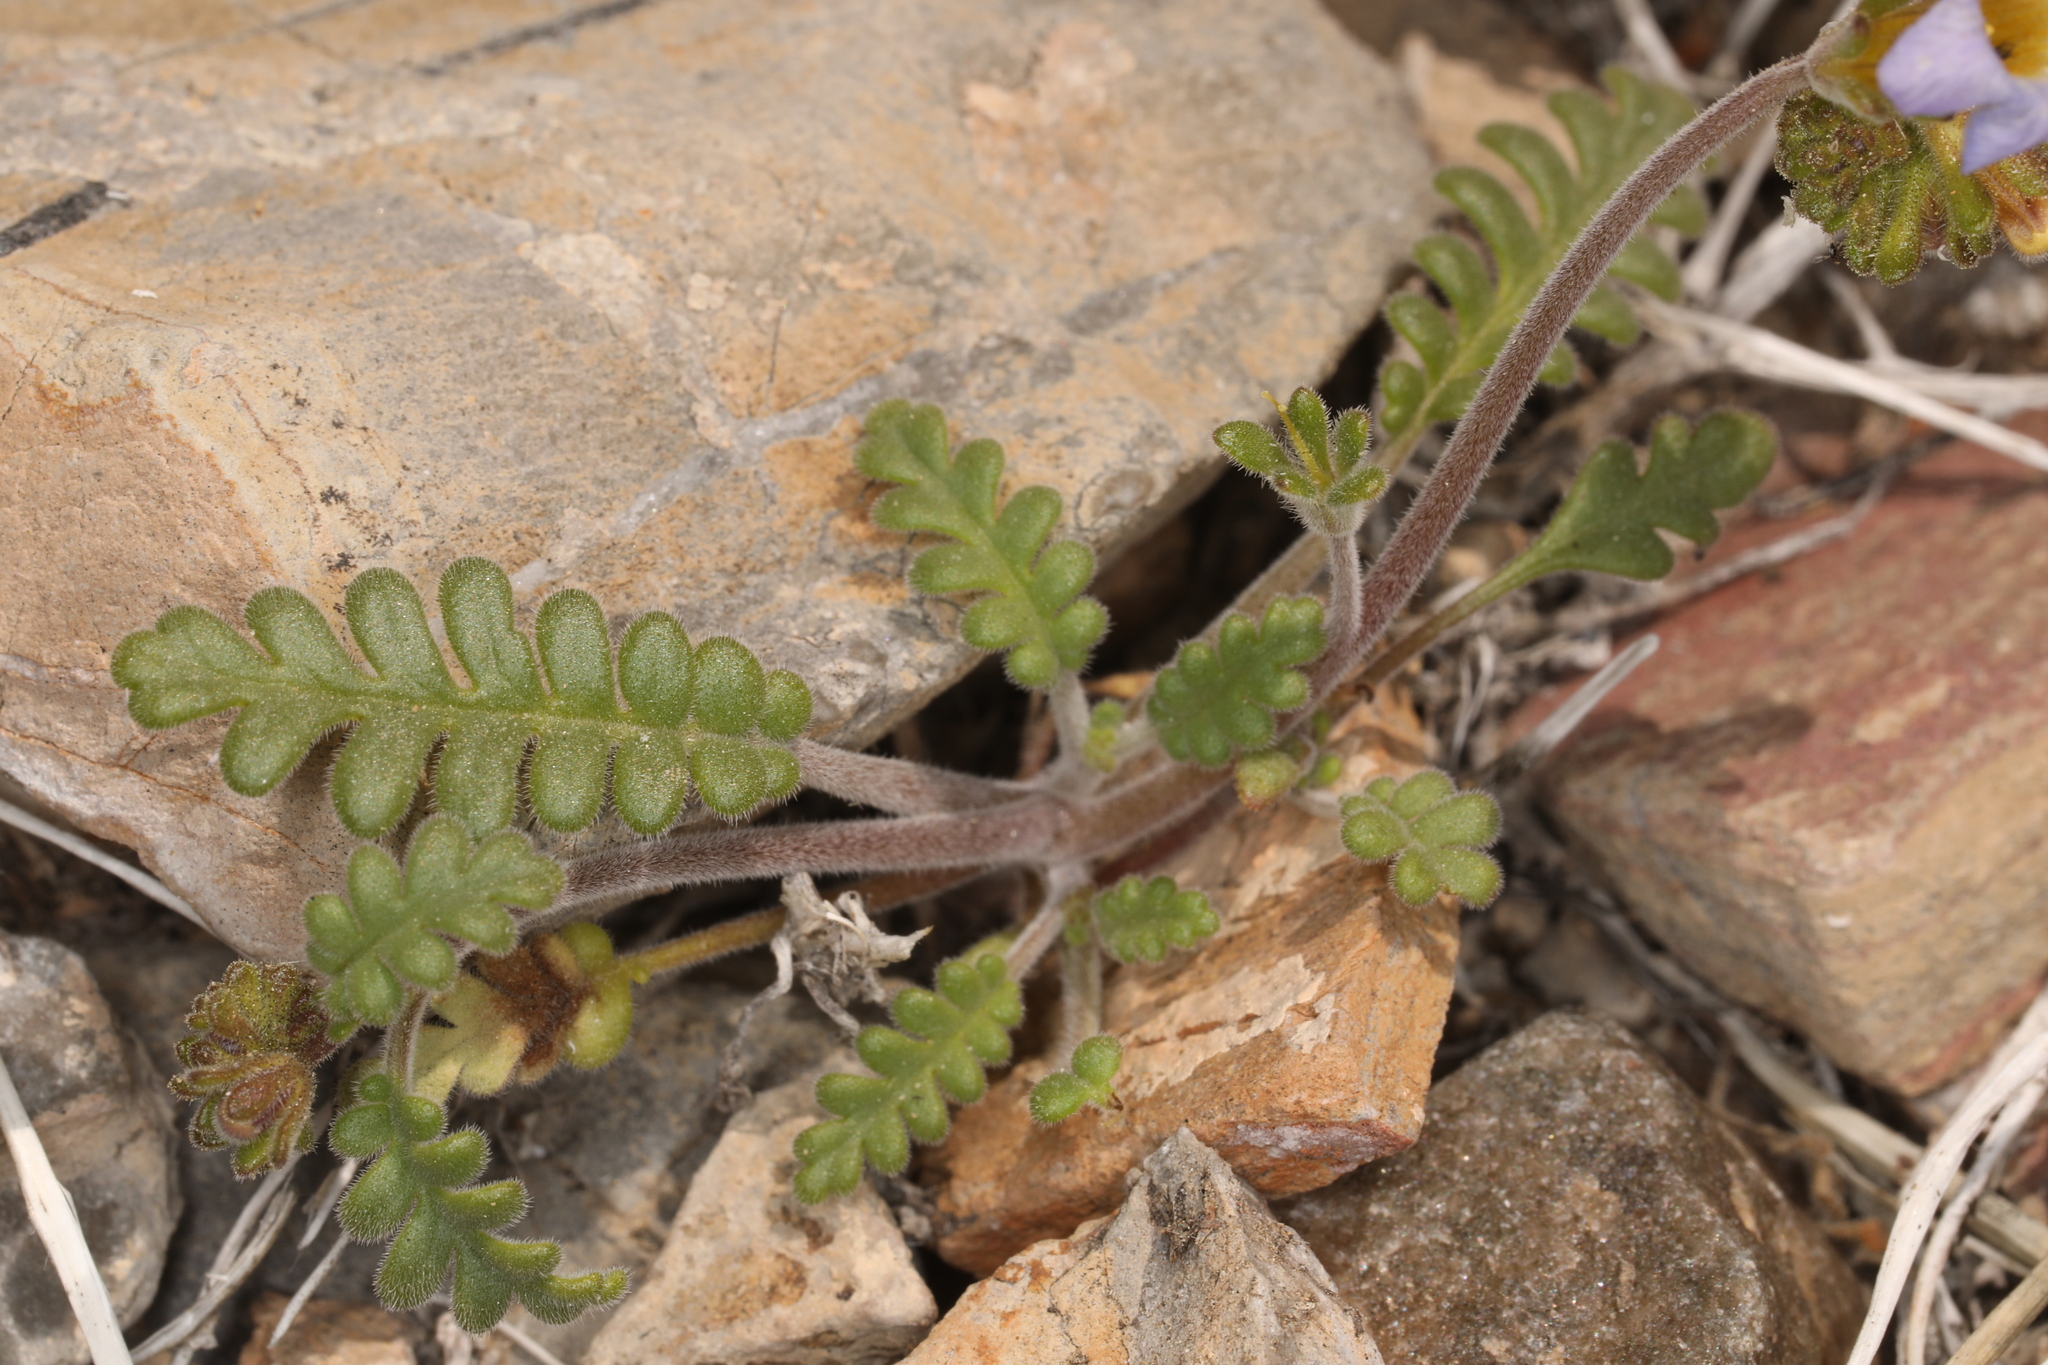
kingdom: Plantae
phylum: Tracheophyta
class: Magnoliopsida
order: Boraginales
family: Hydrophyllaceae
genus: Phacelia
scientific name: Phacelia fremontii
